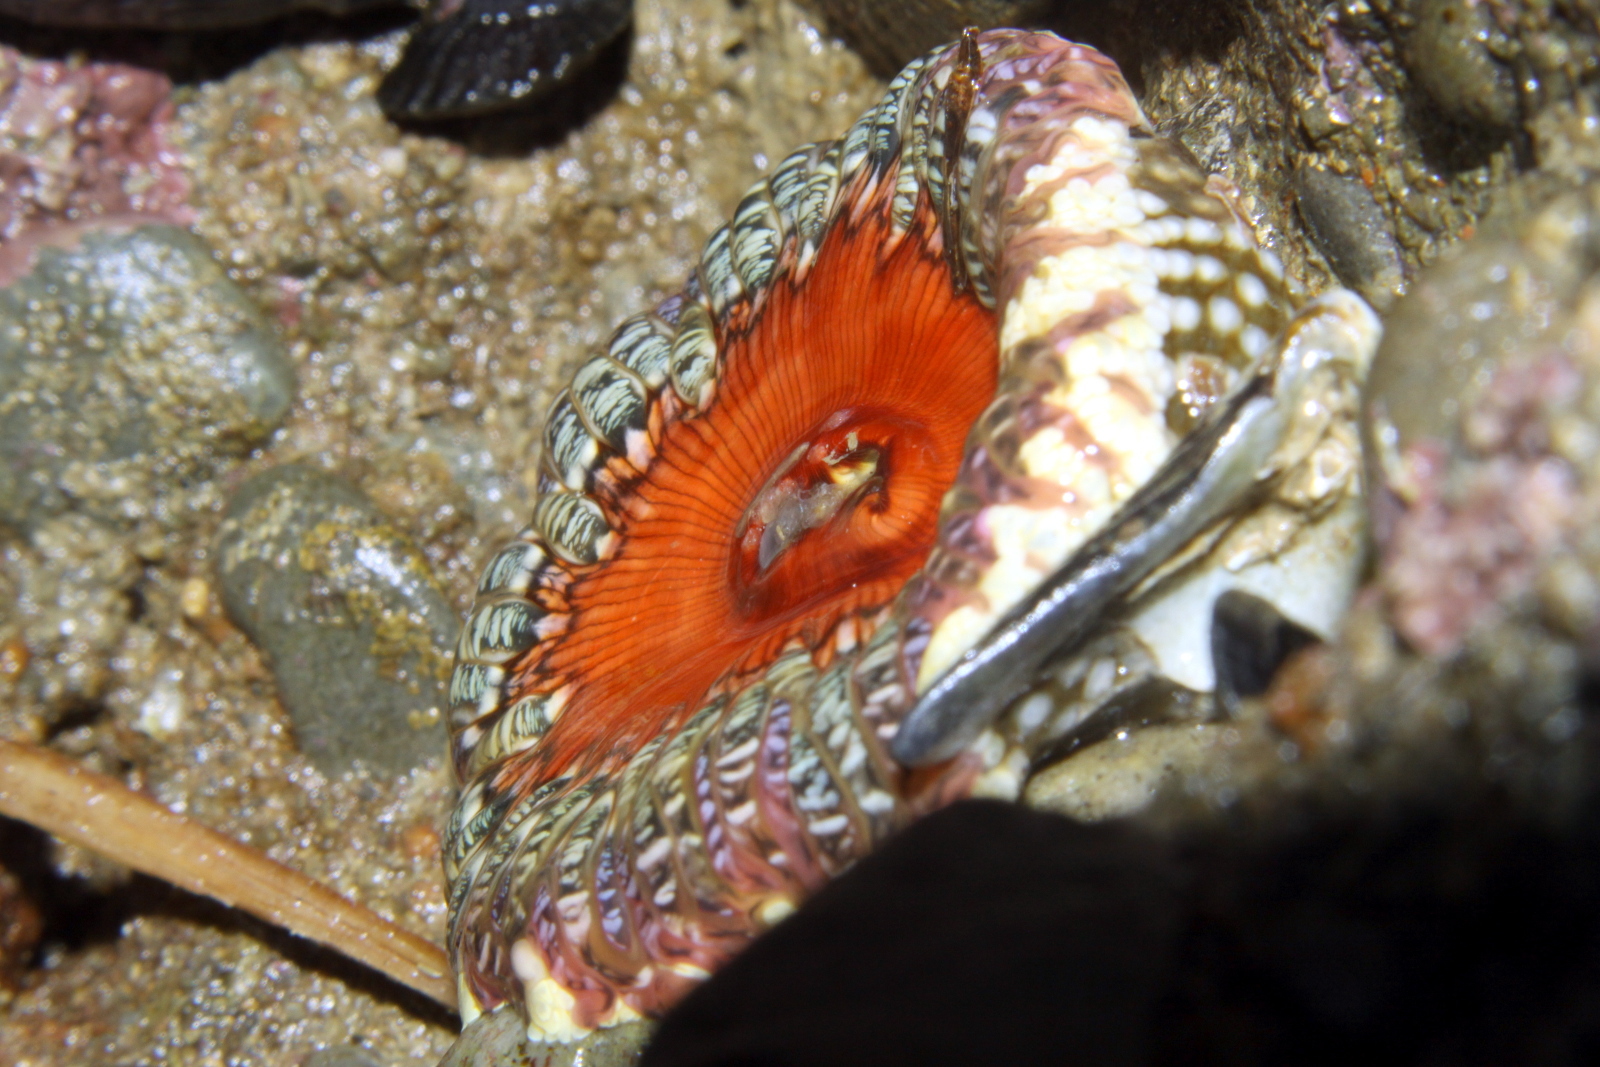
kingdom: Animalia
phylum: Cnidaria
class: Anthozoa
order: Actiniaria
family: Actiniidae
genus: Oulactis
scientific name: Oulactis muscosa
